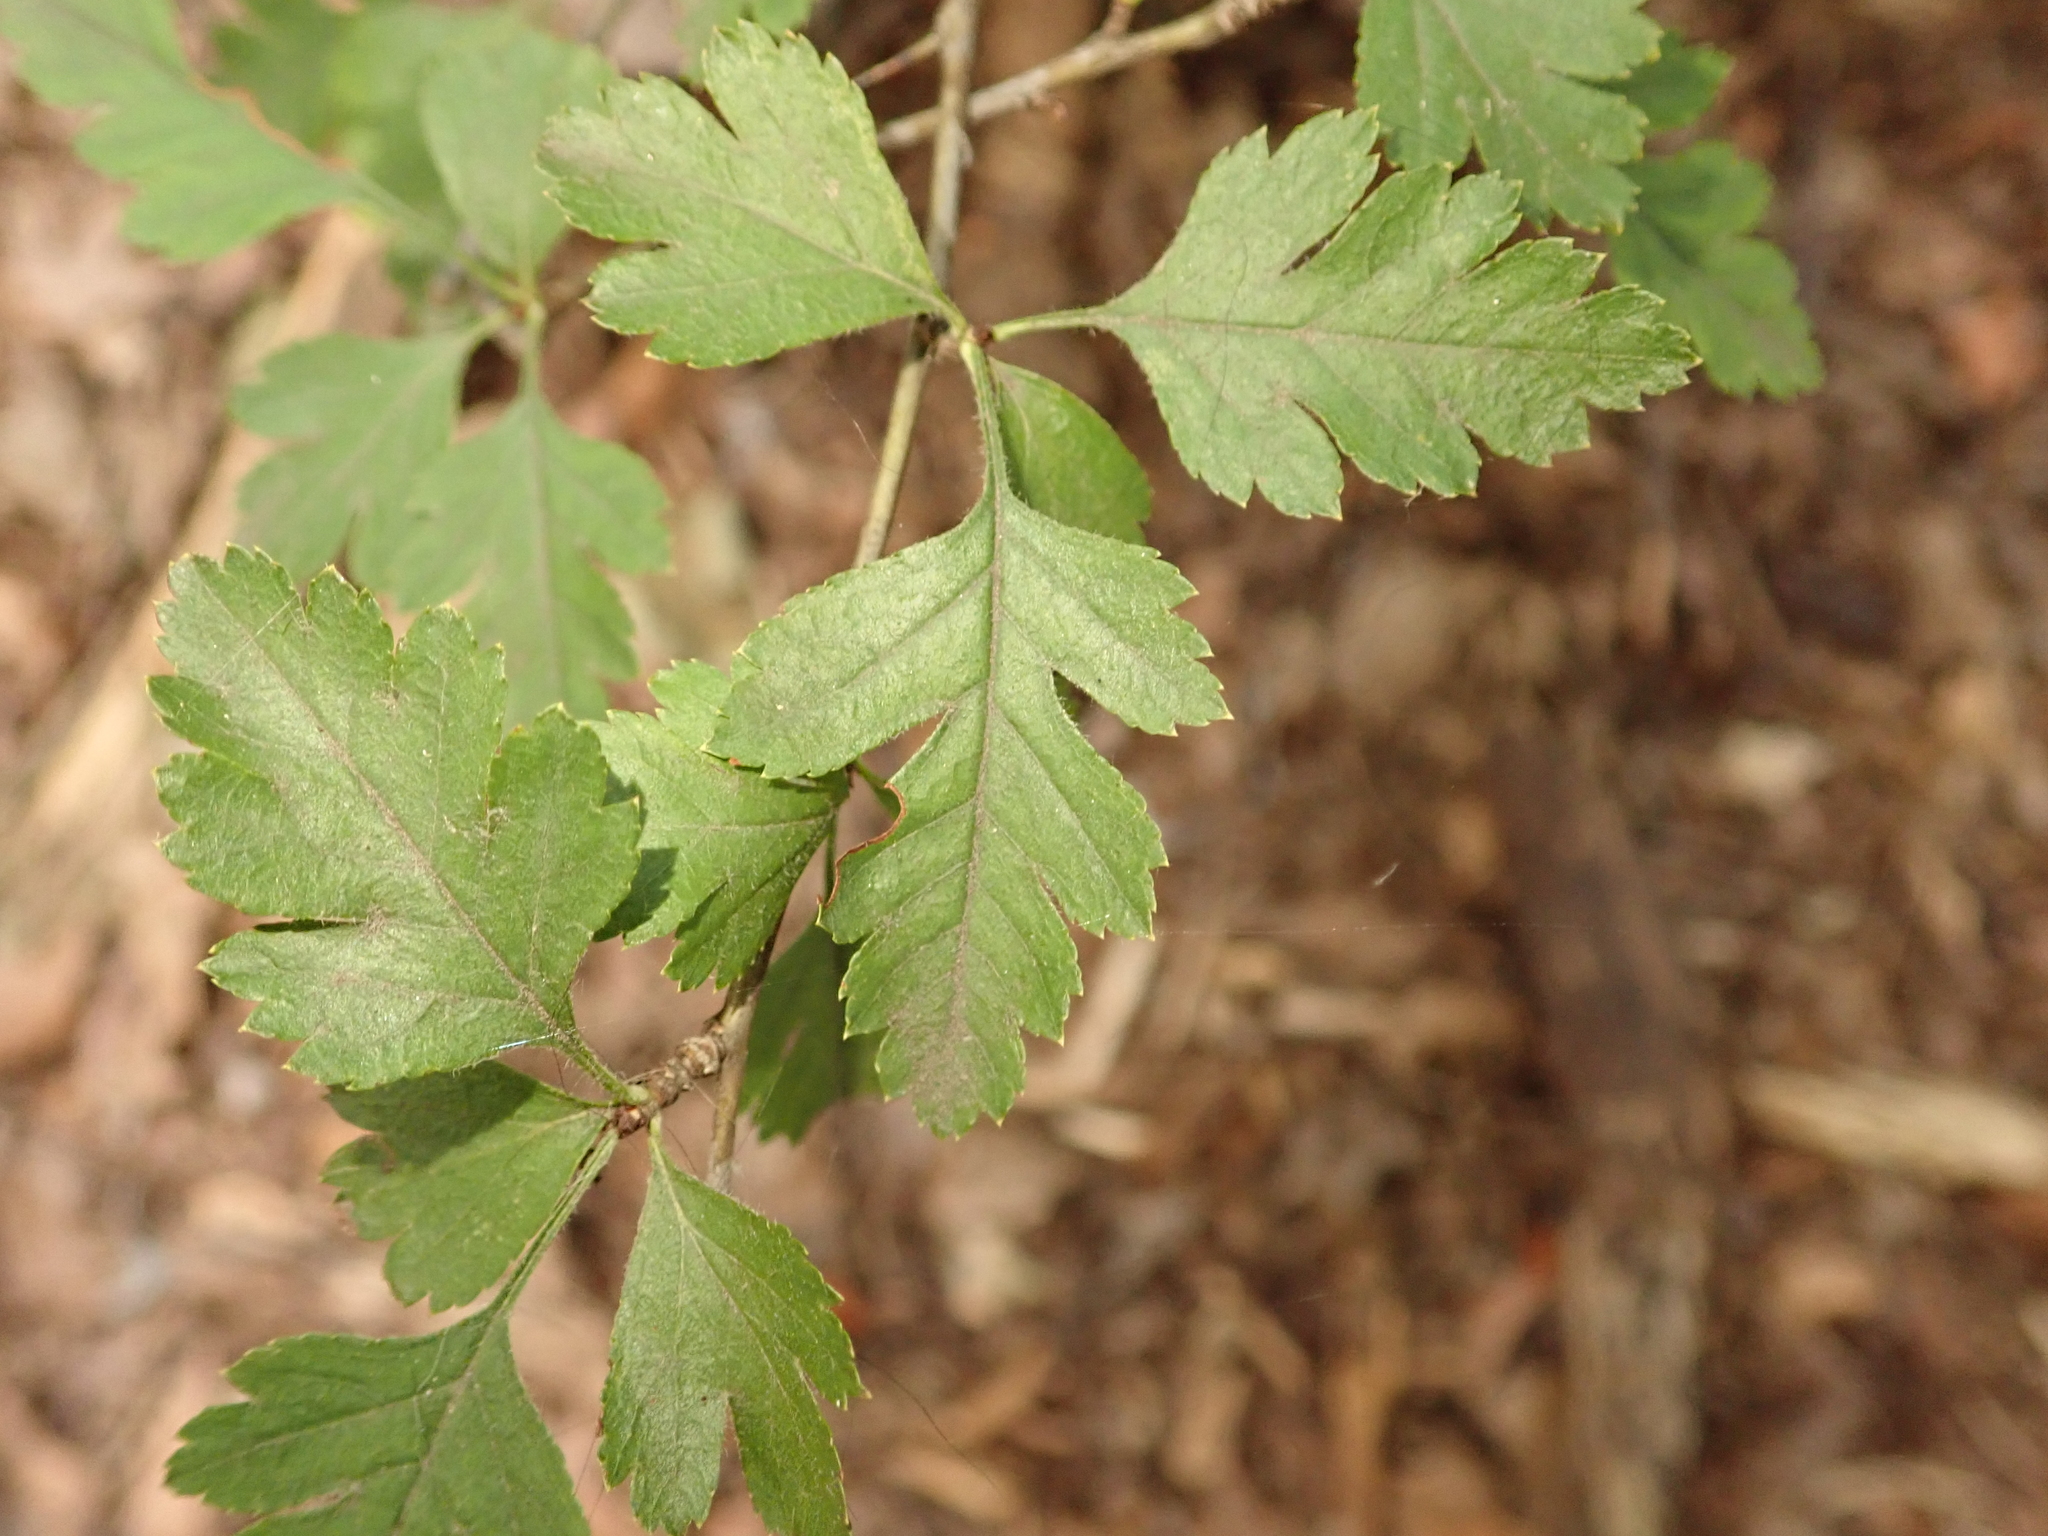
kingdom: Plantae
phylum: Tracheophyta
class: Magnoliopsida
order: Rosales
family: Rosaceae
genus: Crataegus
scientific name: Crataegus monogyna
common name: Hawthorn
